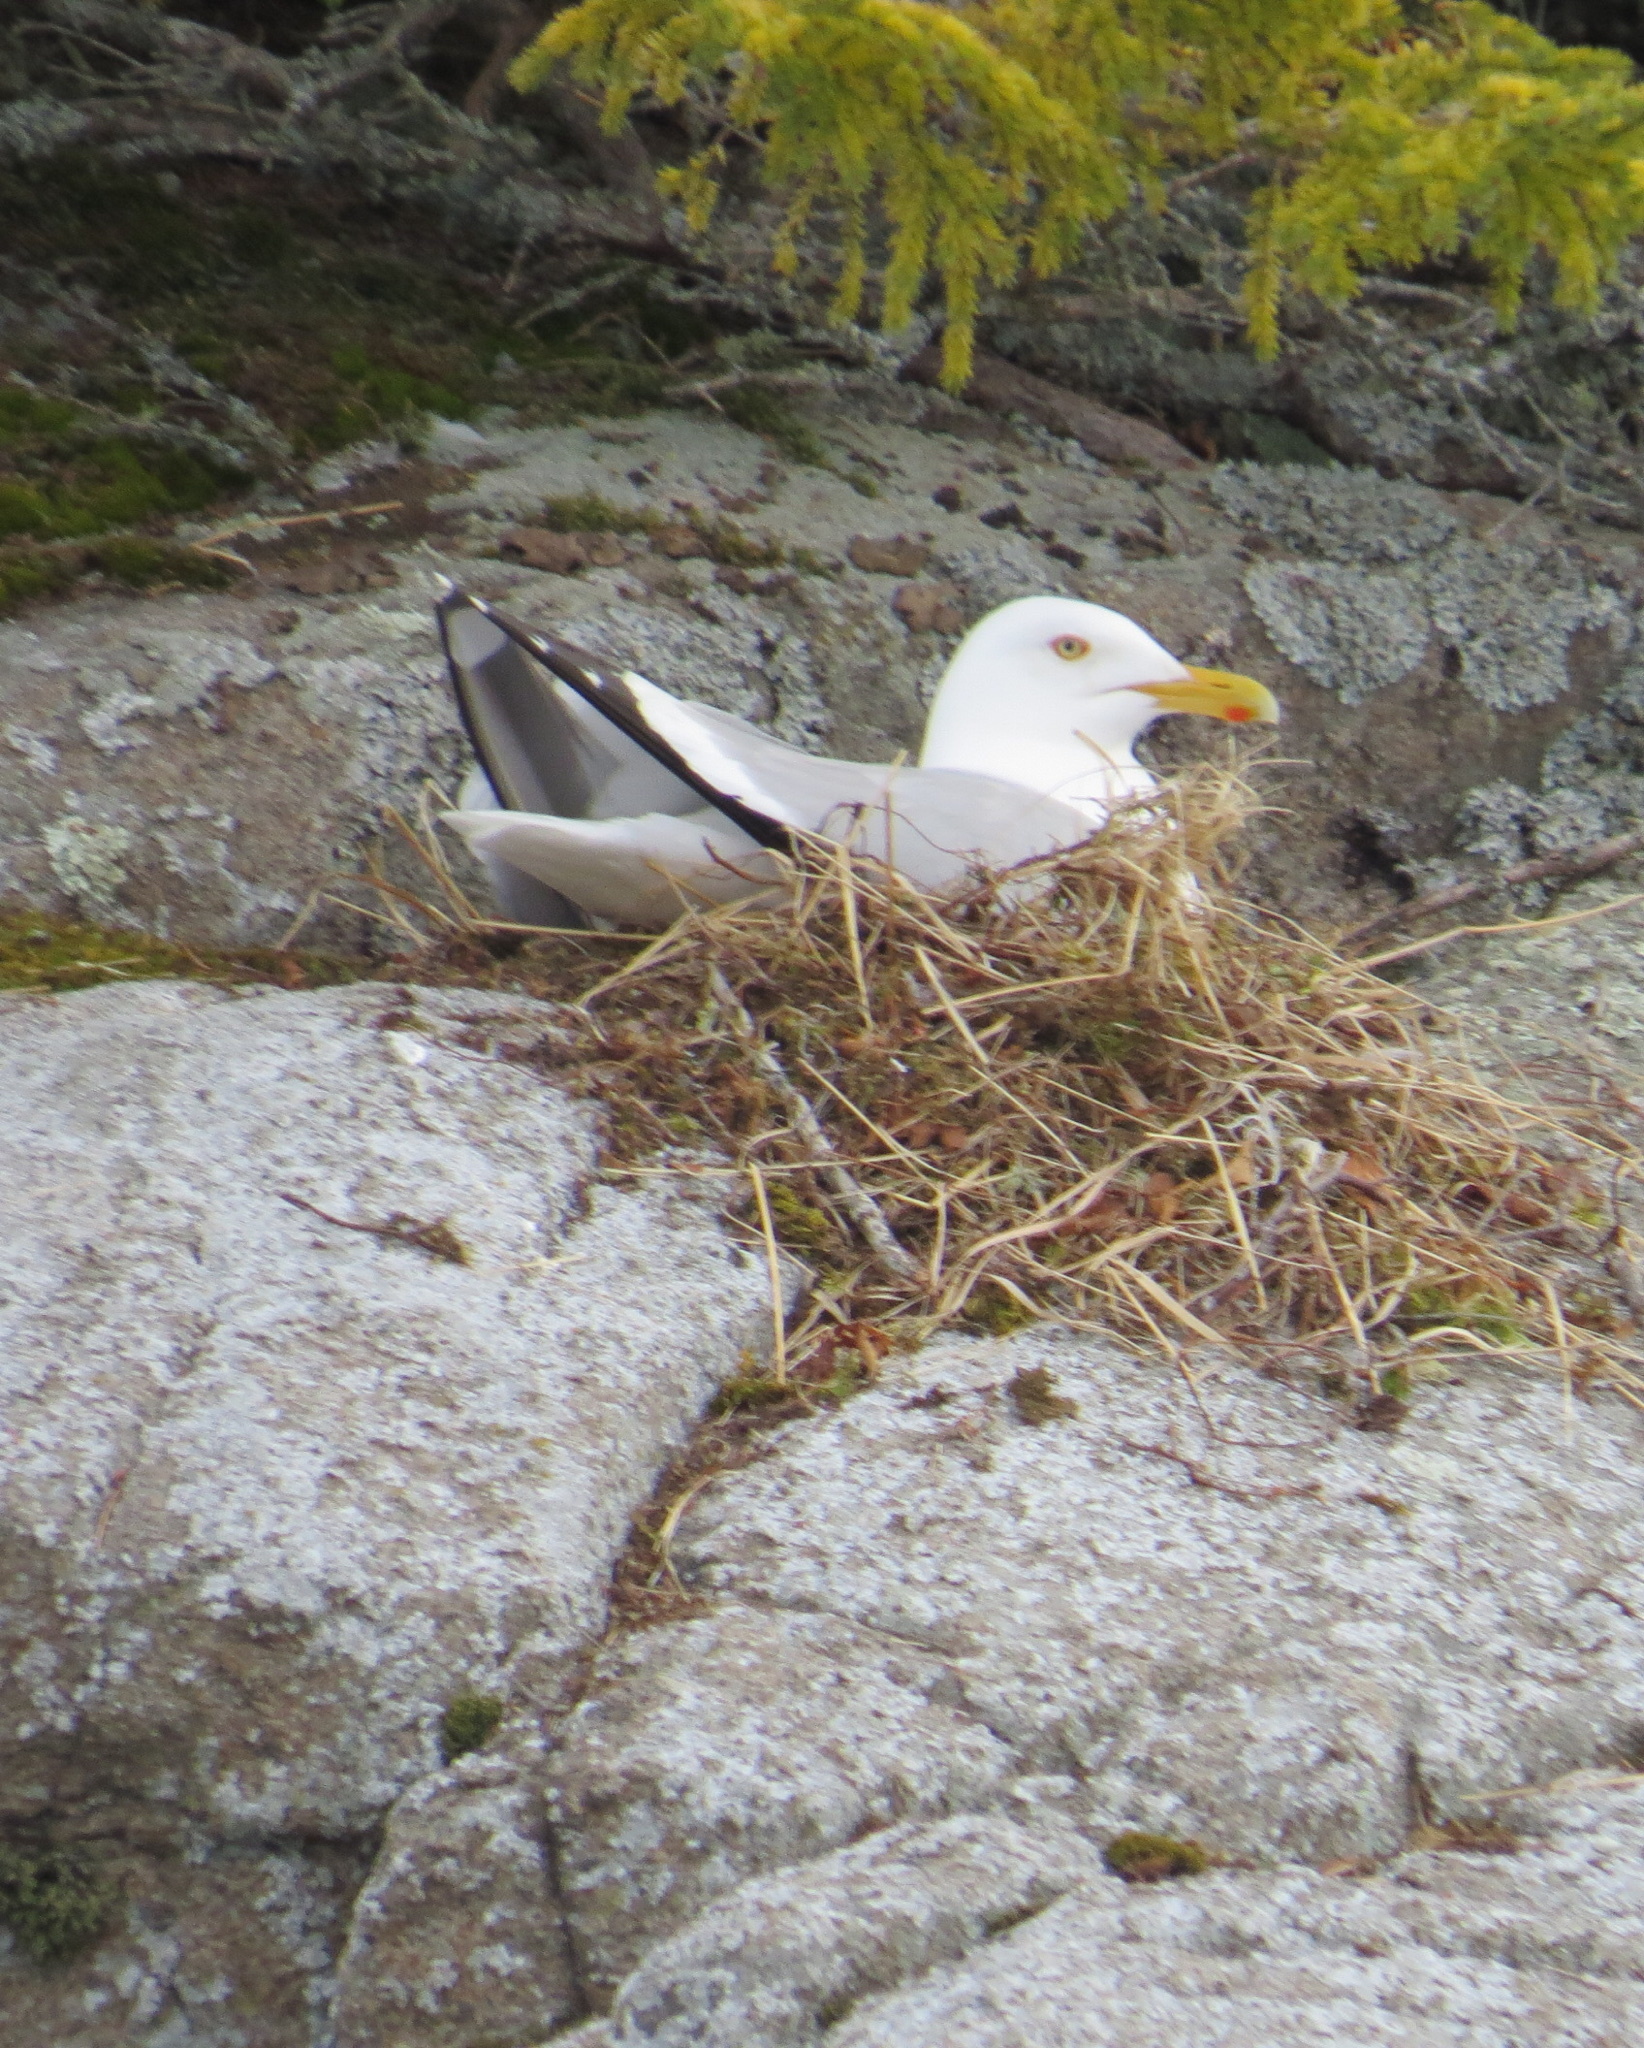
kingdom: Animalia
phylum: Chordata
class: Aves
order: Charadriiformes
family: Laridae
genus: Larus
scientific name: Larus argentatus
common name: Herring gull
